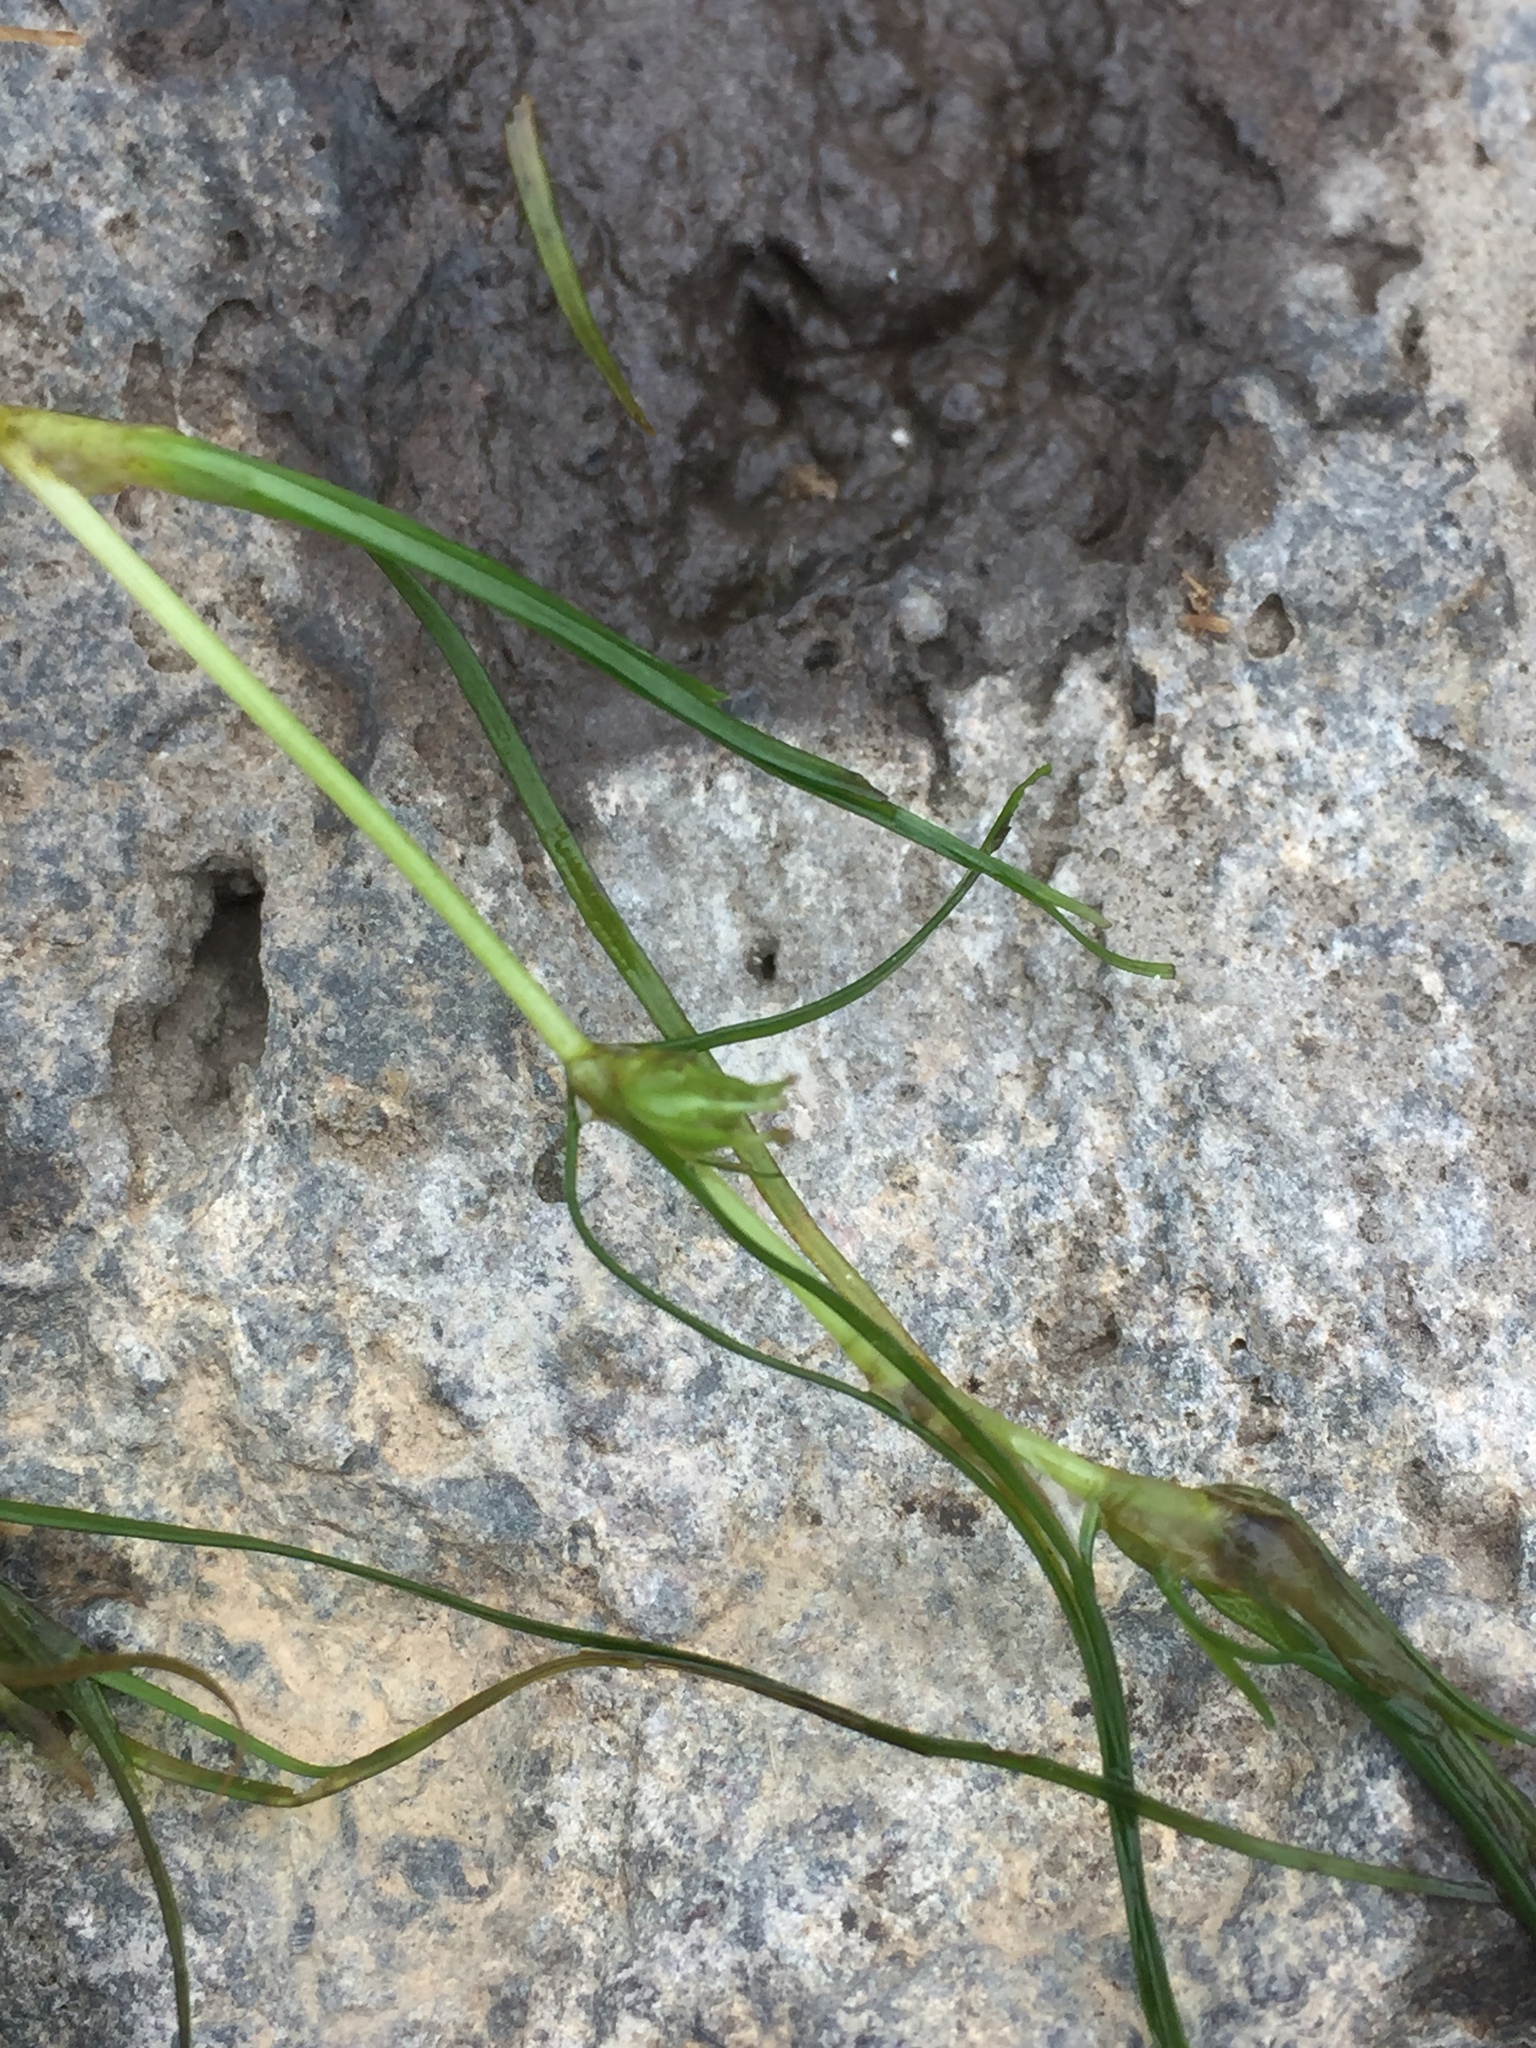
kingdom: Plantae
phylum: Tracheophyta
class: Liliopsida
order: Alismatales
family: Potamogetonaceae
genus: Zannichellia
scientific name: Zannichellia palustris
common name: Horned pondweed
